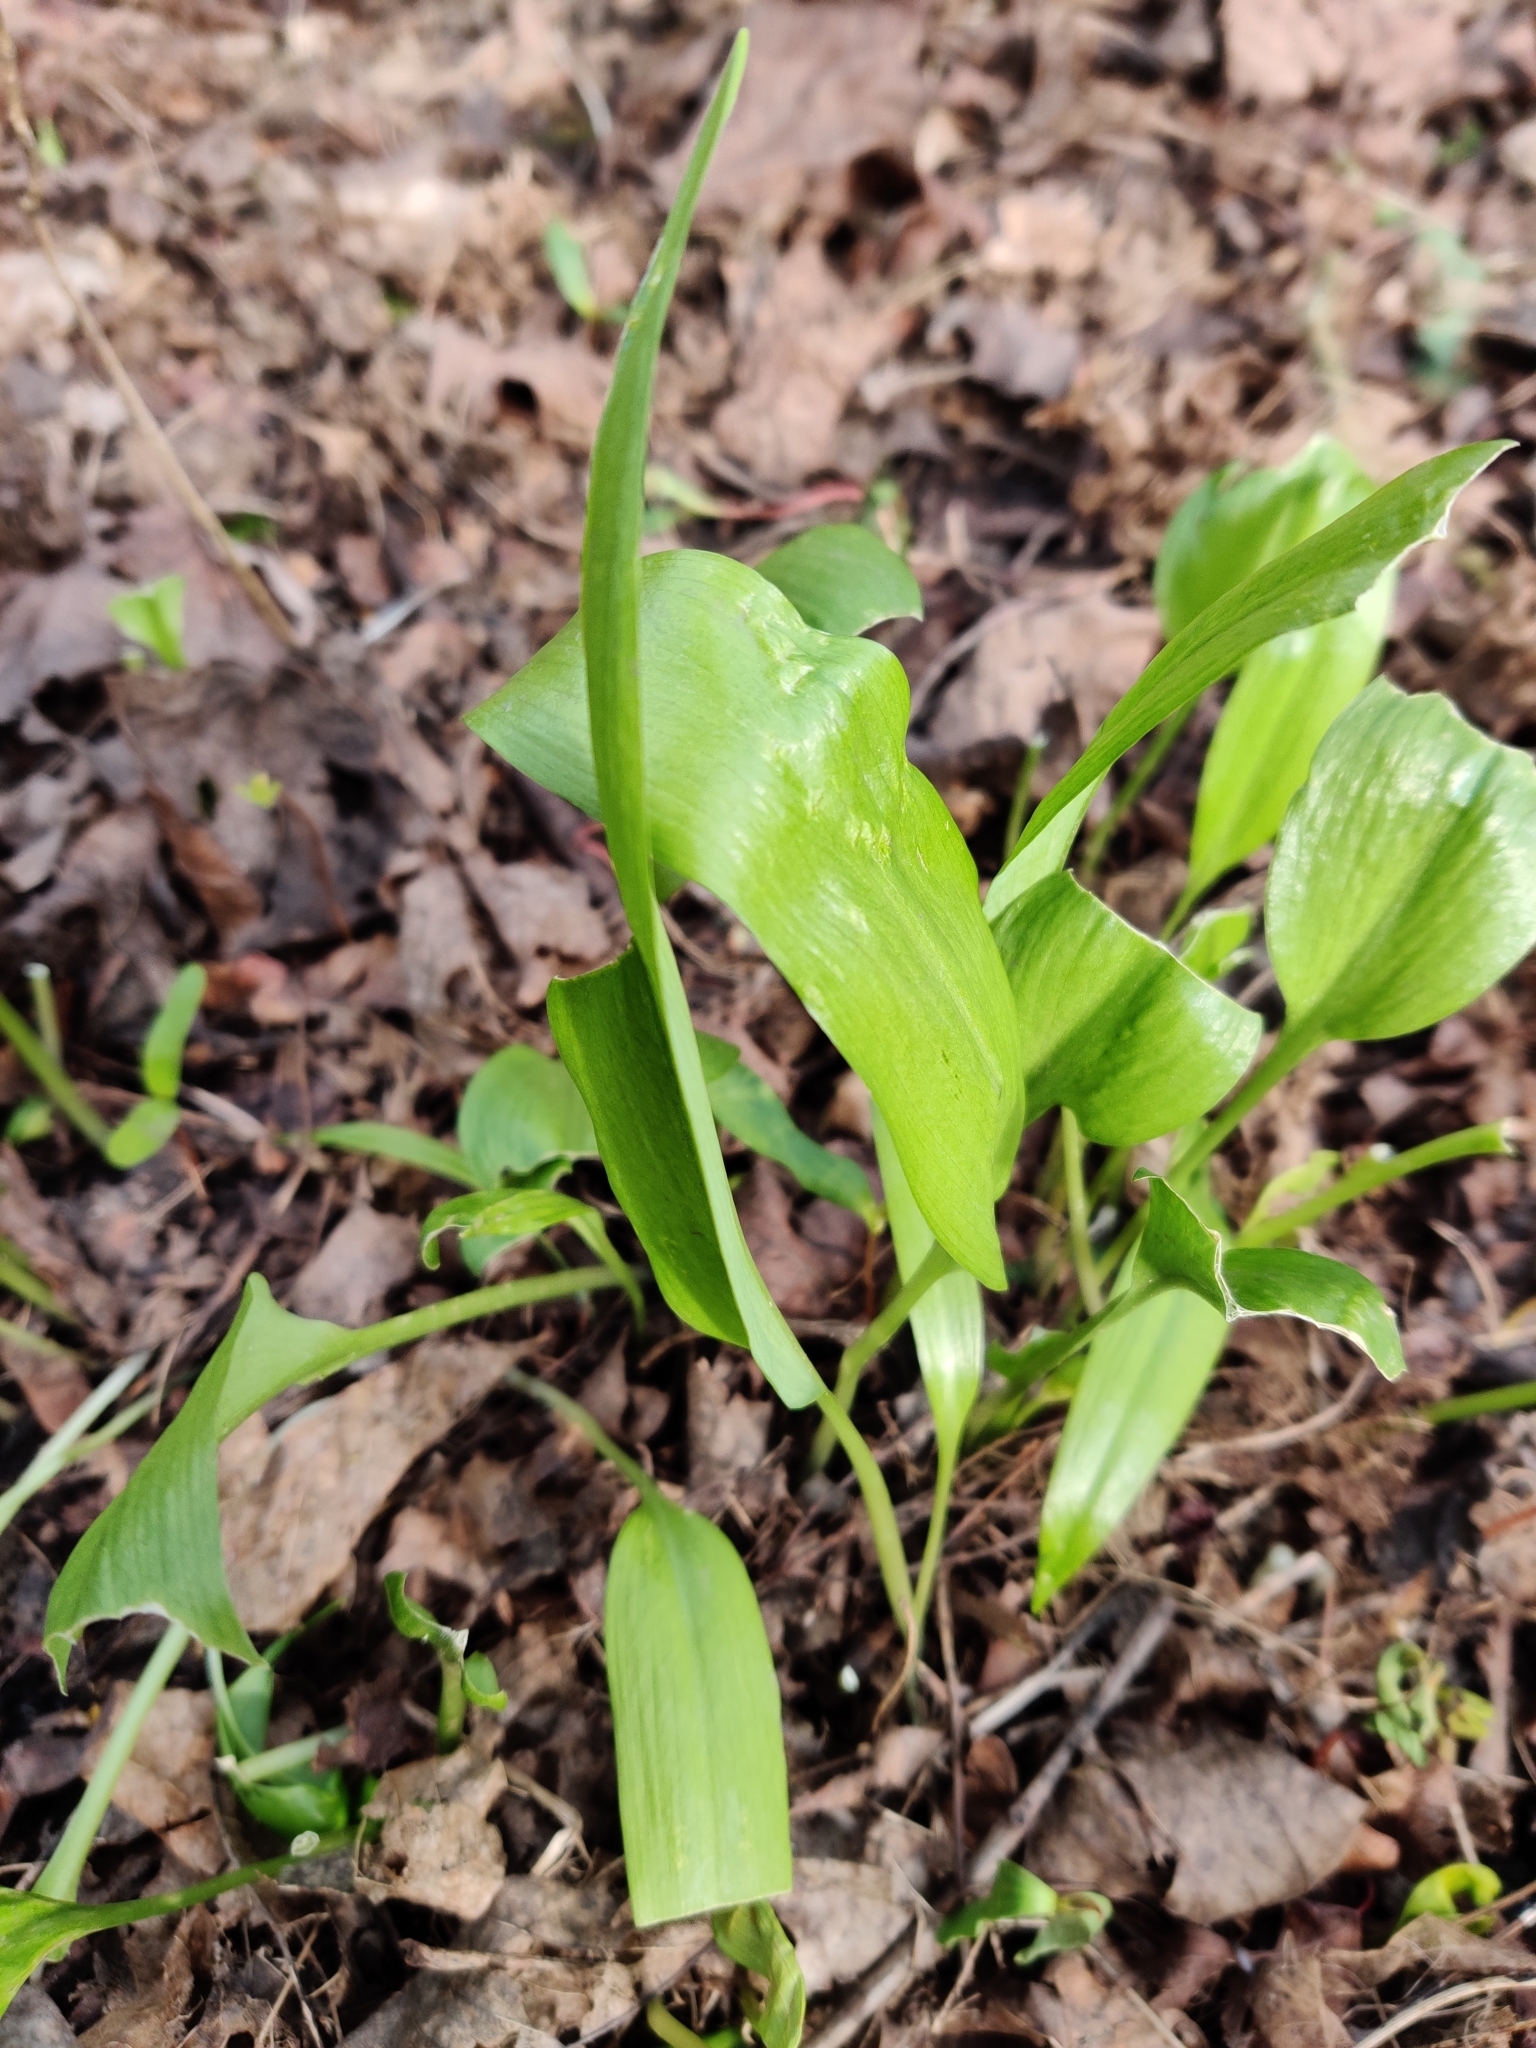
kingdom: Plantae
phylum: Tracheophyta
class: Liliopsida
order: Asparagales
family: Amaryllidaceae
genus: Allium
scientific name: Allium ursinum
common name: Ramsons
